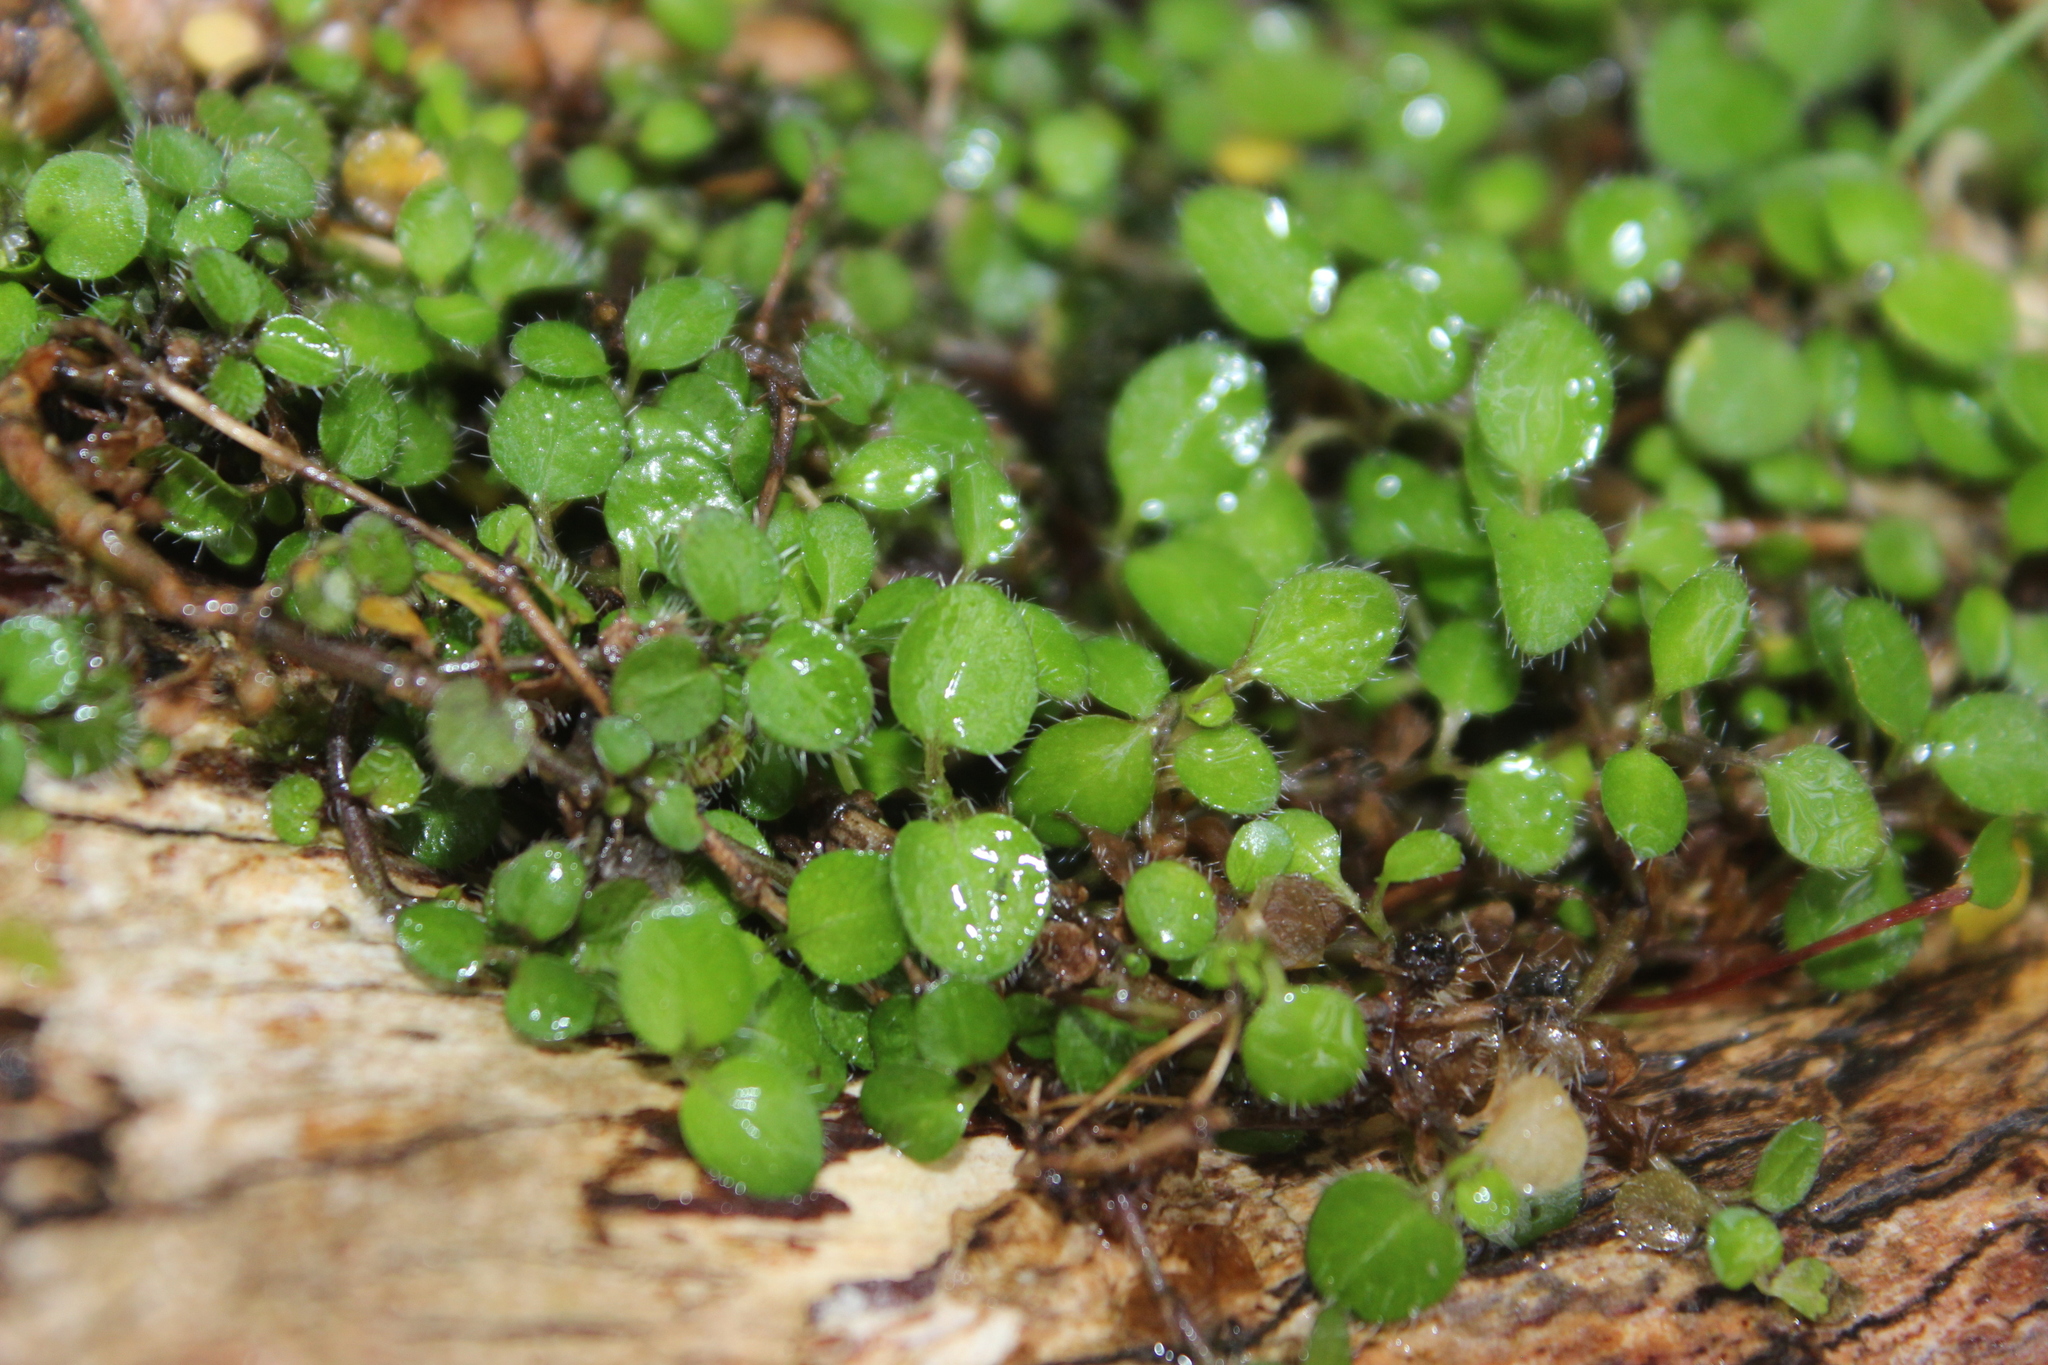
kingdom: Plantae
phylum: Tracheophyta
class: Magnoliopsida
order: Gentianales
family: Rubiaceae
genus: Leptostigma
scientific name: Leptostigma setulosum
